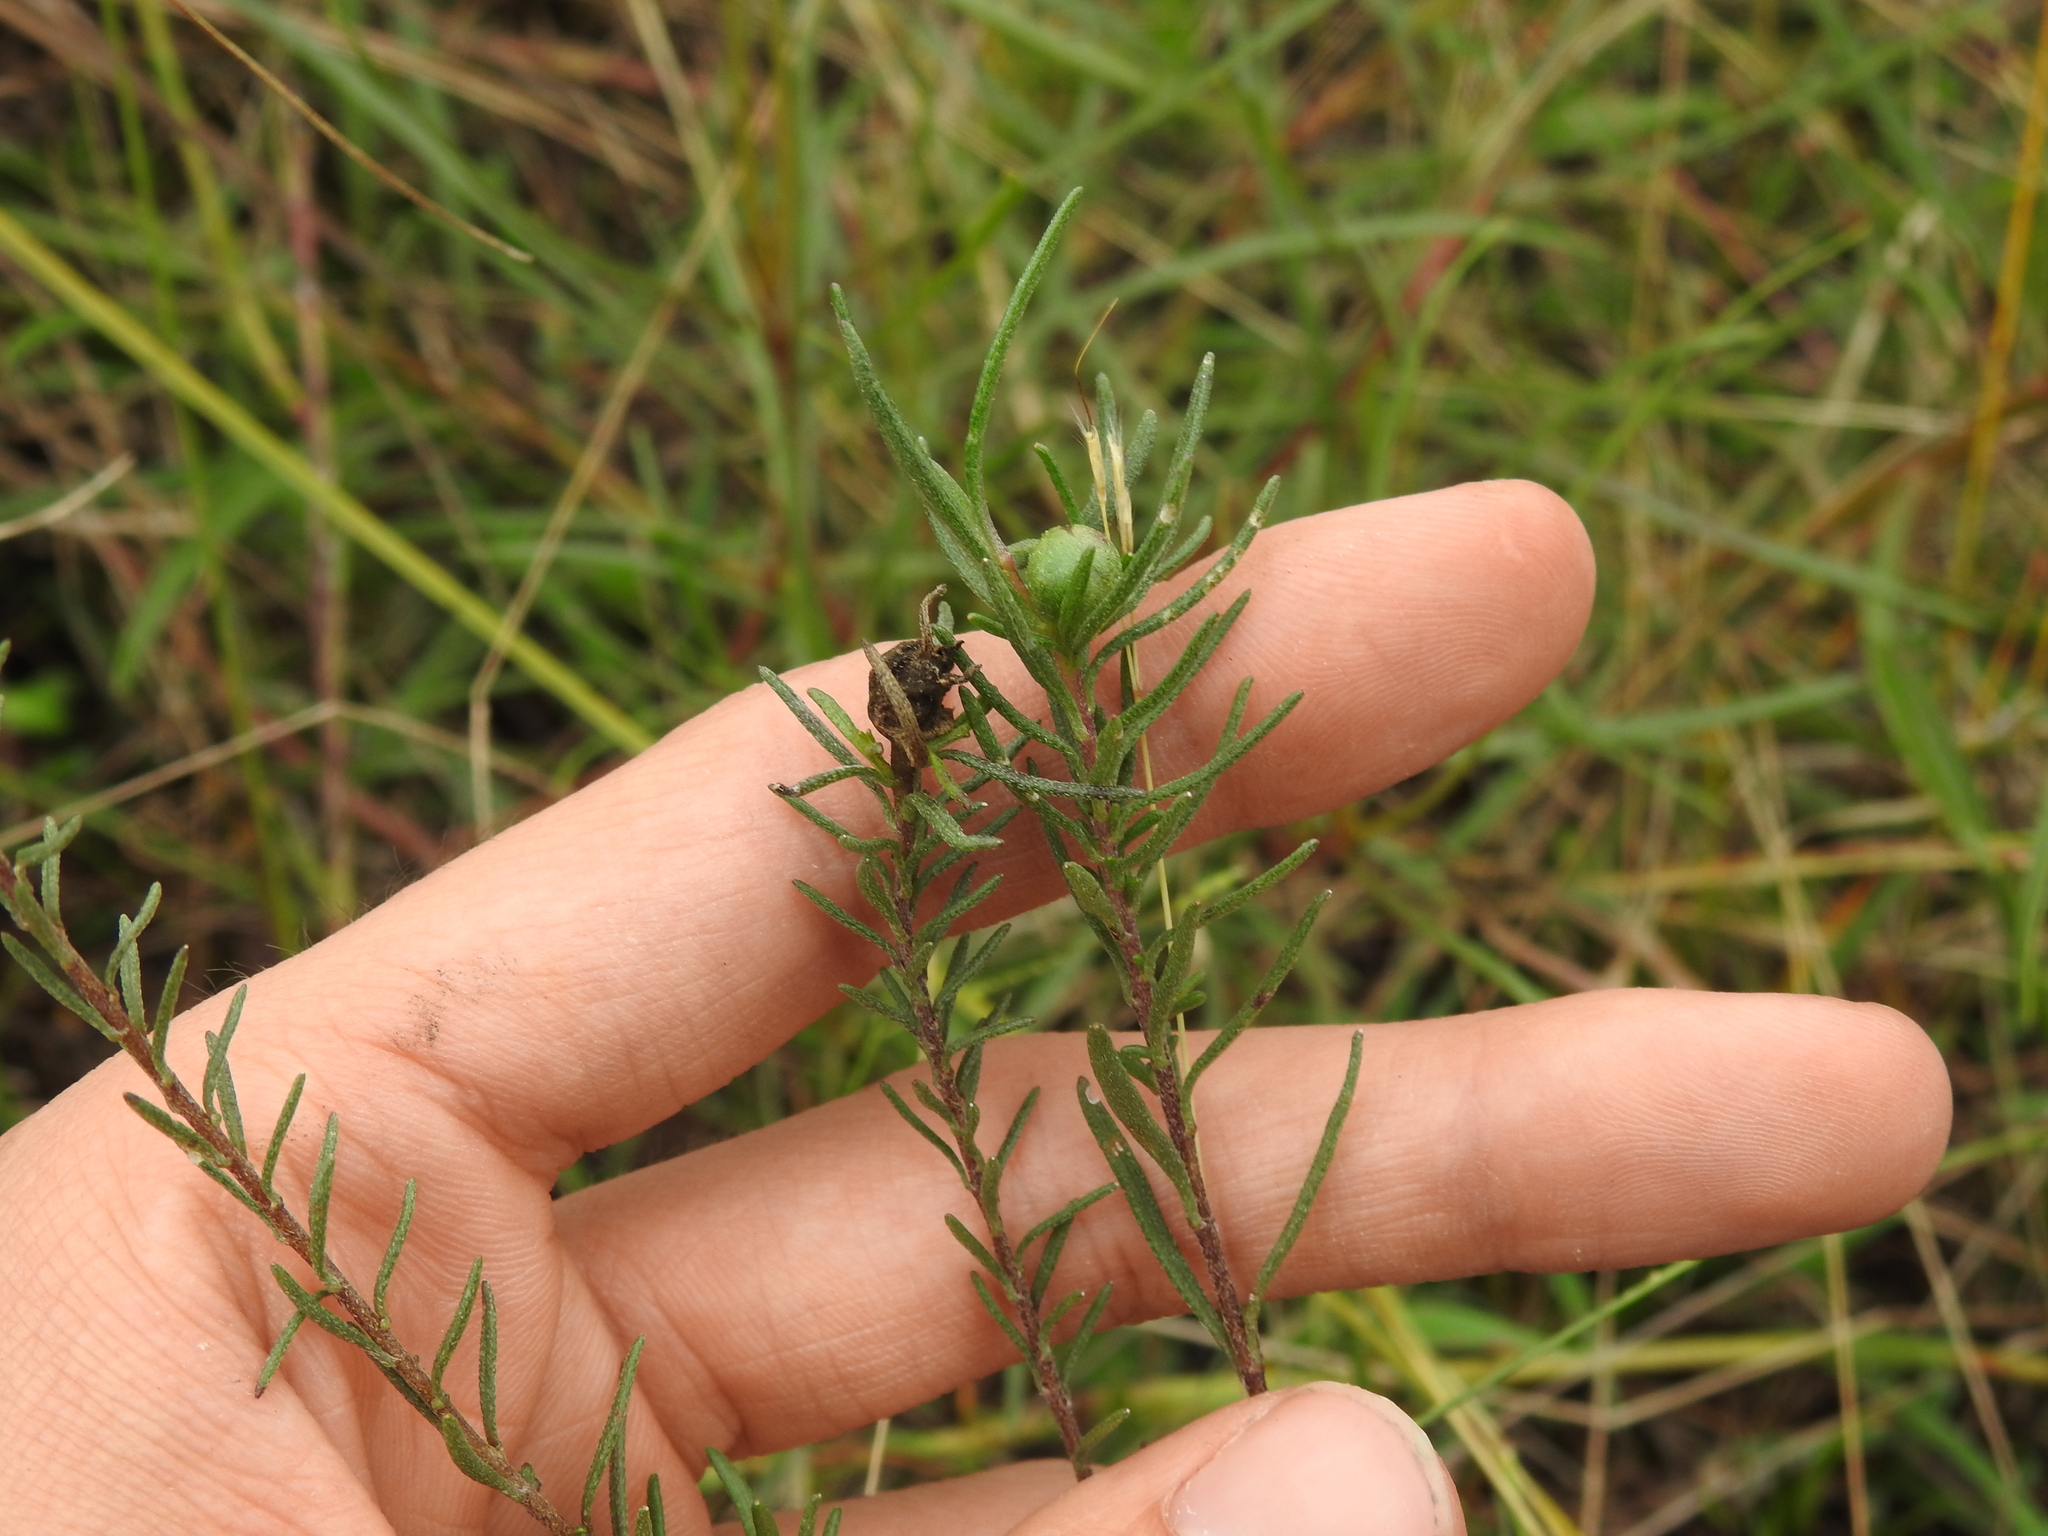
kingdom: Plantae
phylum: Tracheophyta
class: Magnoliopsida
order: Asterales
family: Asteraceae
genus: Iva
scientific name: Iva microcephala
